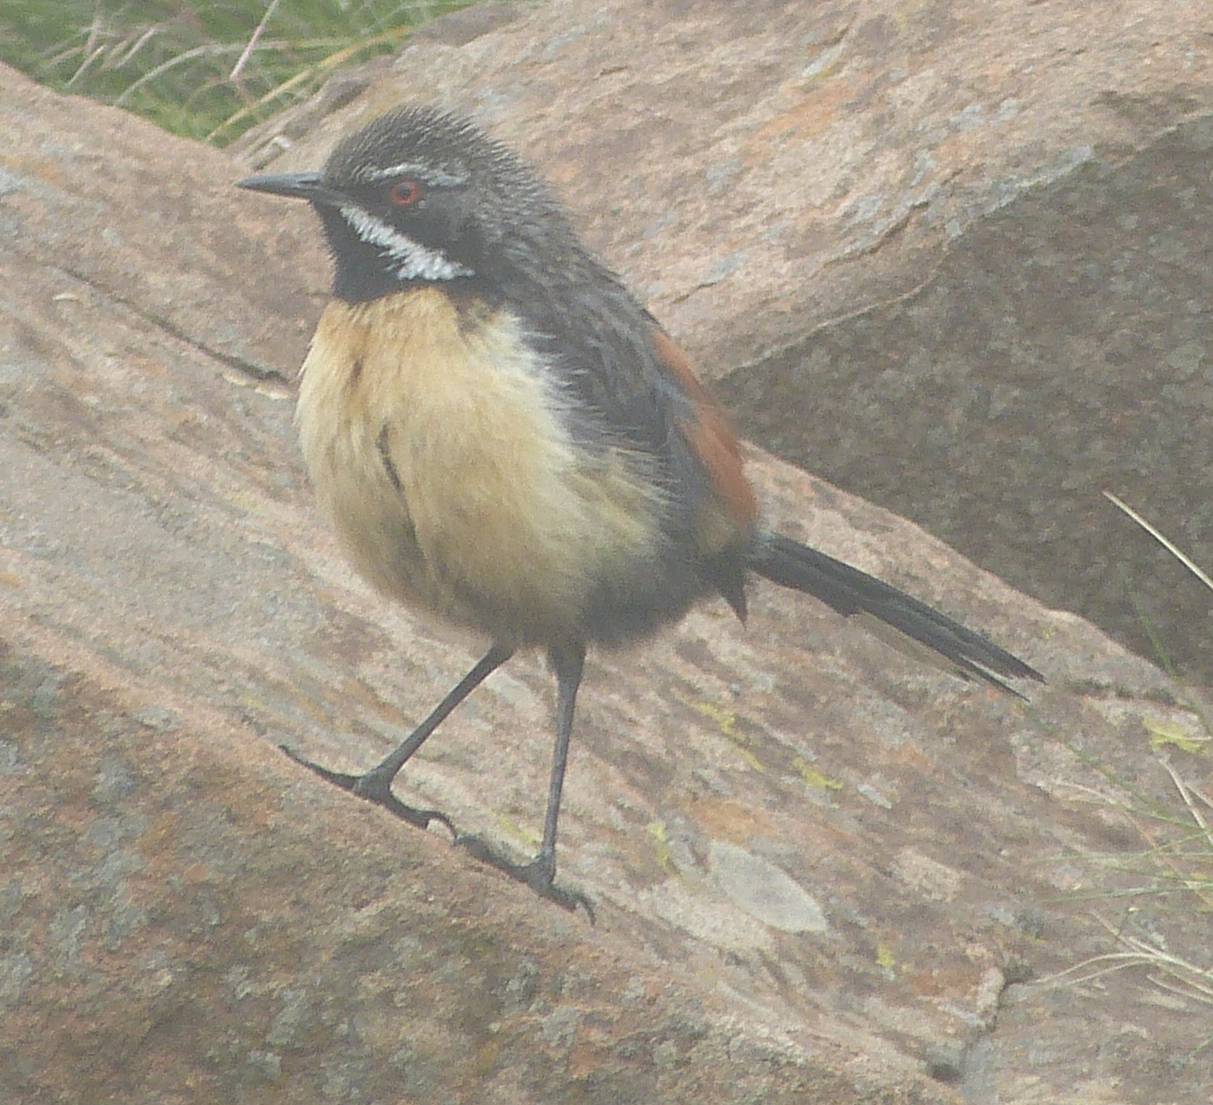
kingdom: Animalia
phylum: Chordata
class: Aves
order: Passeriformes
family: Chaetopidae
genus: Chaetops
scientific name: Chaetops aurantius
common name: Drakensberg rockjumper
